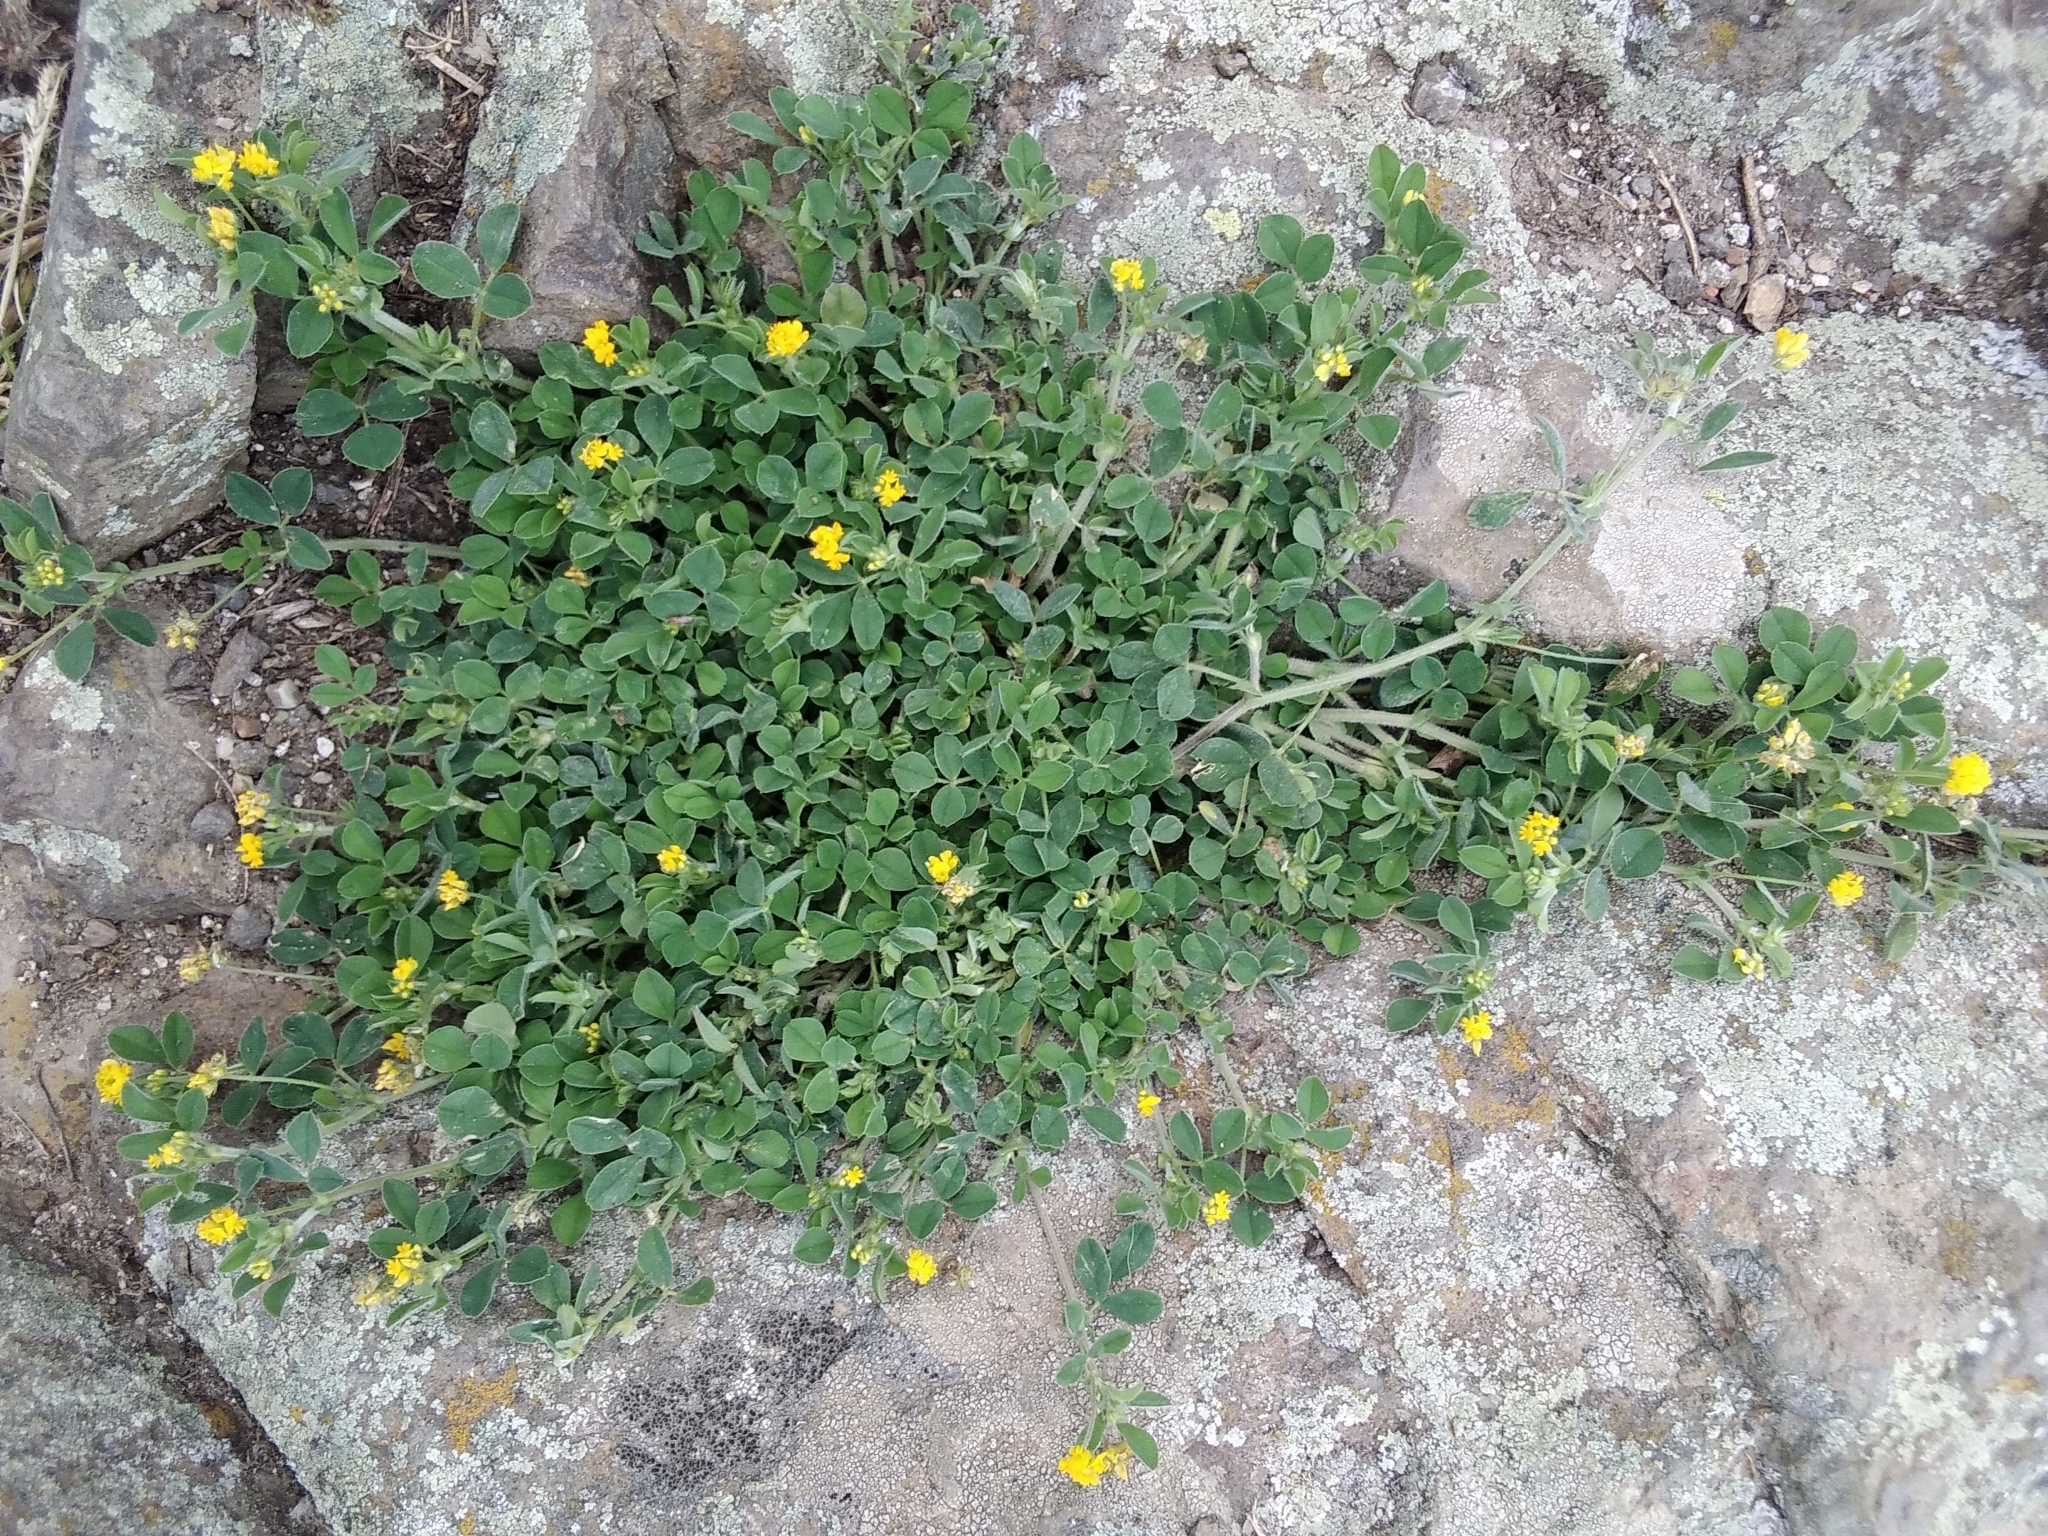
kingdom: Plantae
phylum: Tracheophyta
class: Magnoliopsida
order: Fabales
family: Fabaceae
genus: Medicago
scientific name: Medicago minima
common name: Little bur-clover
